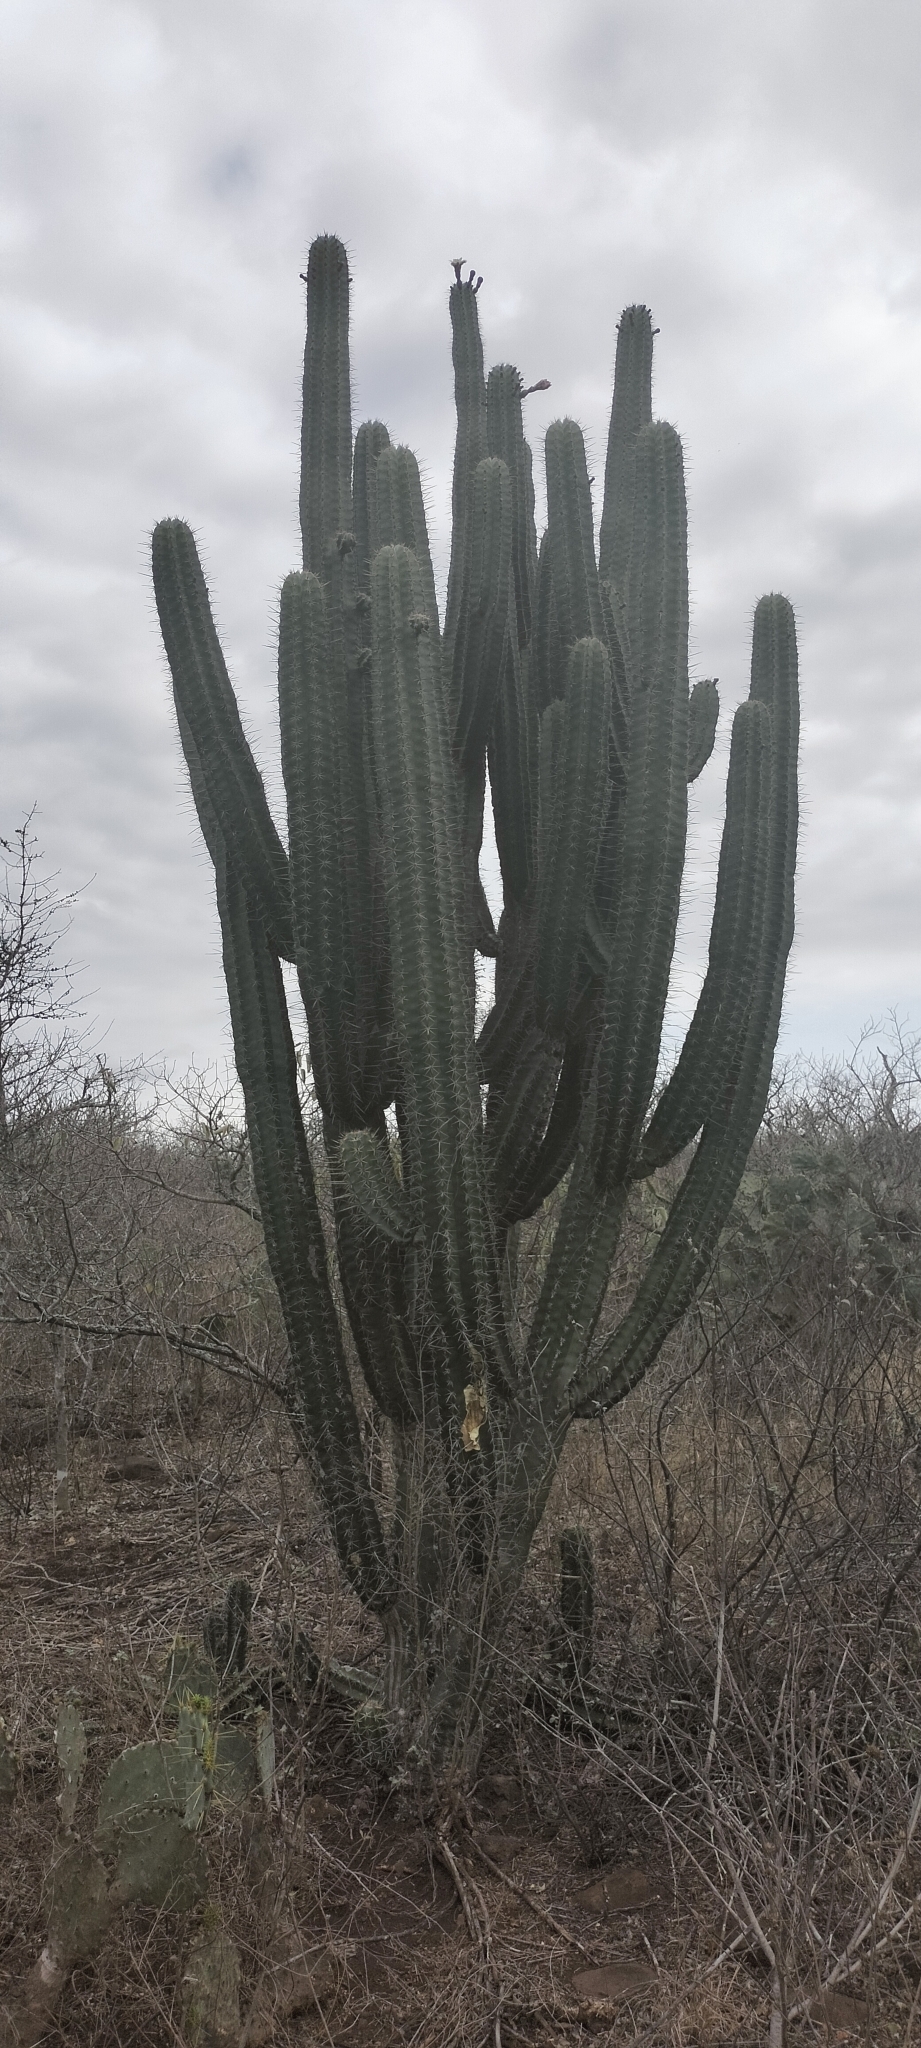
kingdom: Plantae
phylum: Tracheophyta
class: Magnoliopsida
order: Caryophyllales
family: Cactaceae
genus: Stenocereus
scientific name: Stenocereus huastecorum
